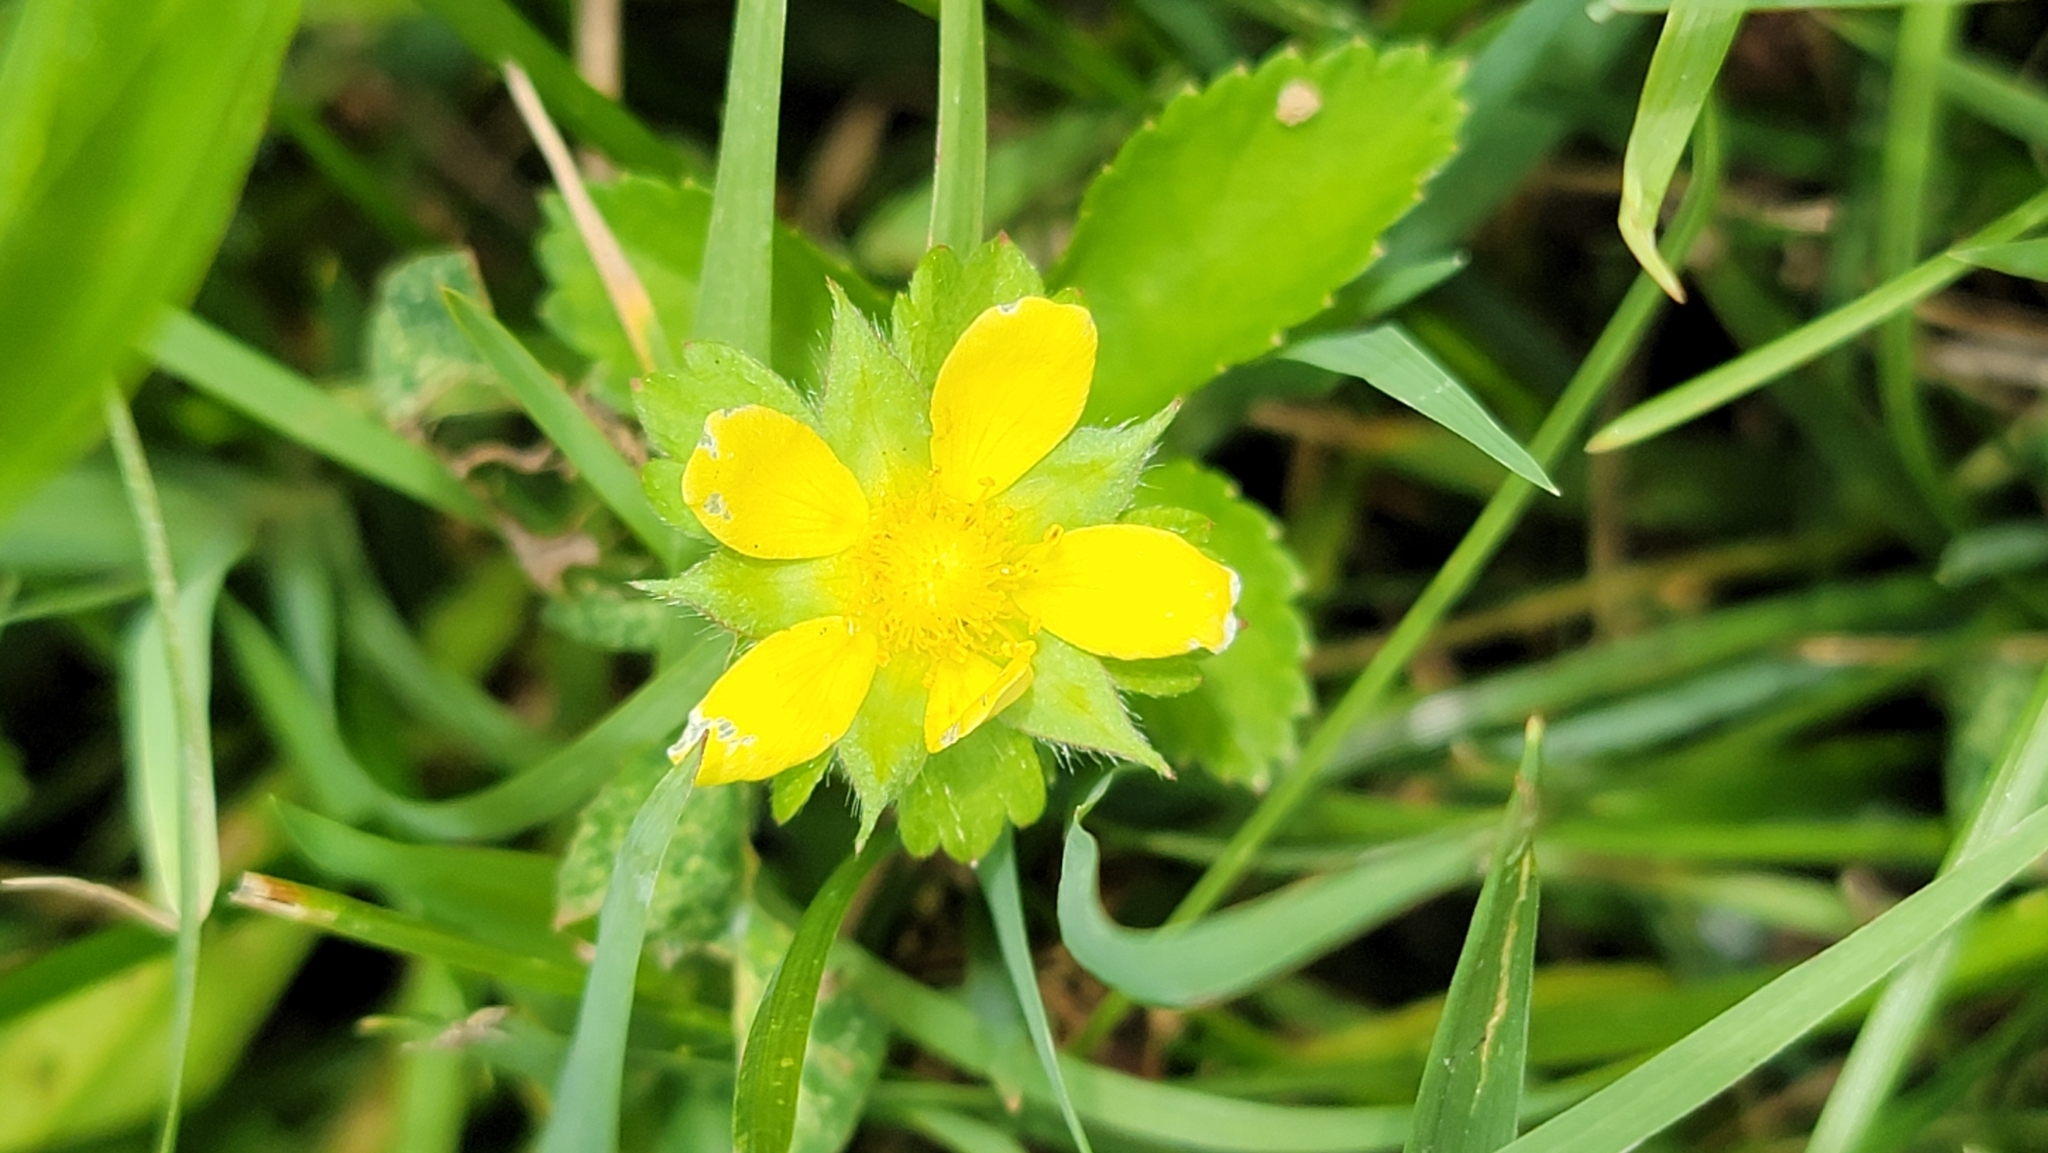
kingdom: Plantae
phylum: Tracheophyta
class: Magnoliopsida
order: Rosales
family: Rosaceae
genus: Potentilla
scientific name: Potentilla indica
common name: Yellow-flowered strawberry
